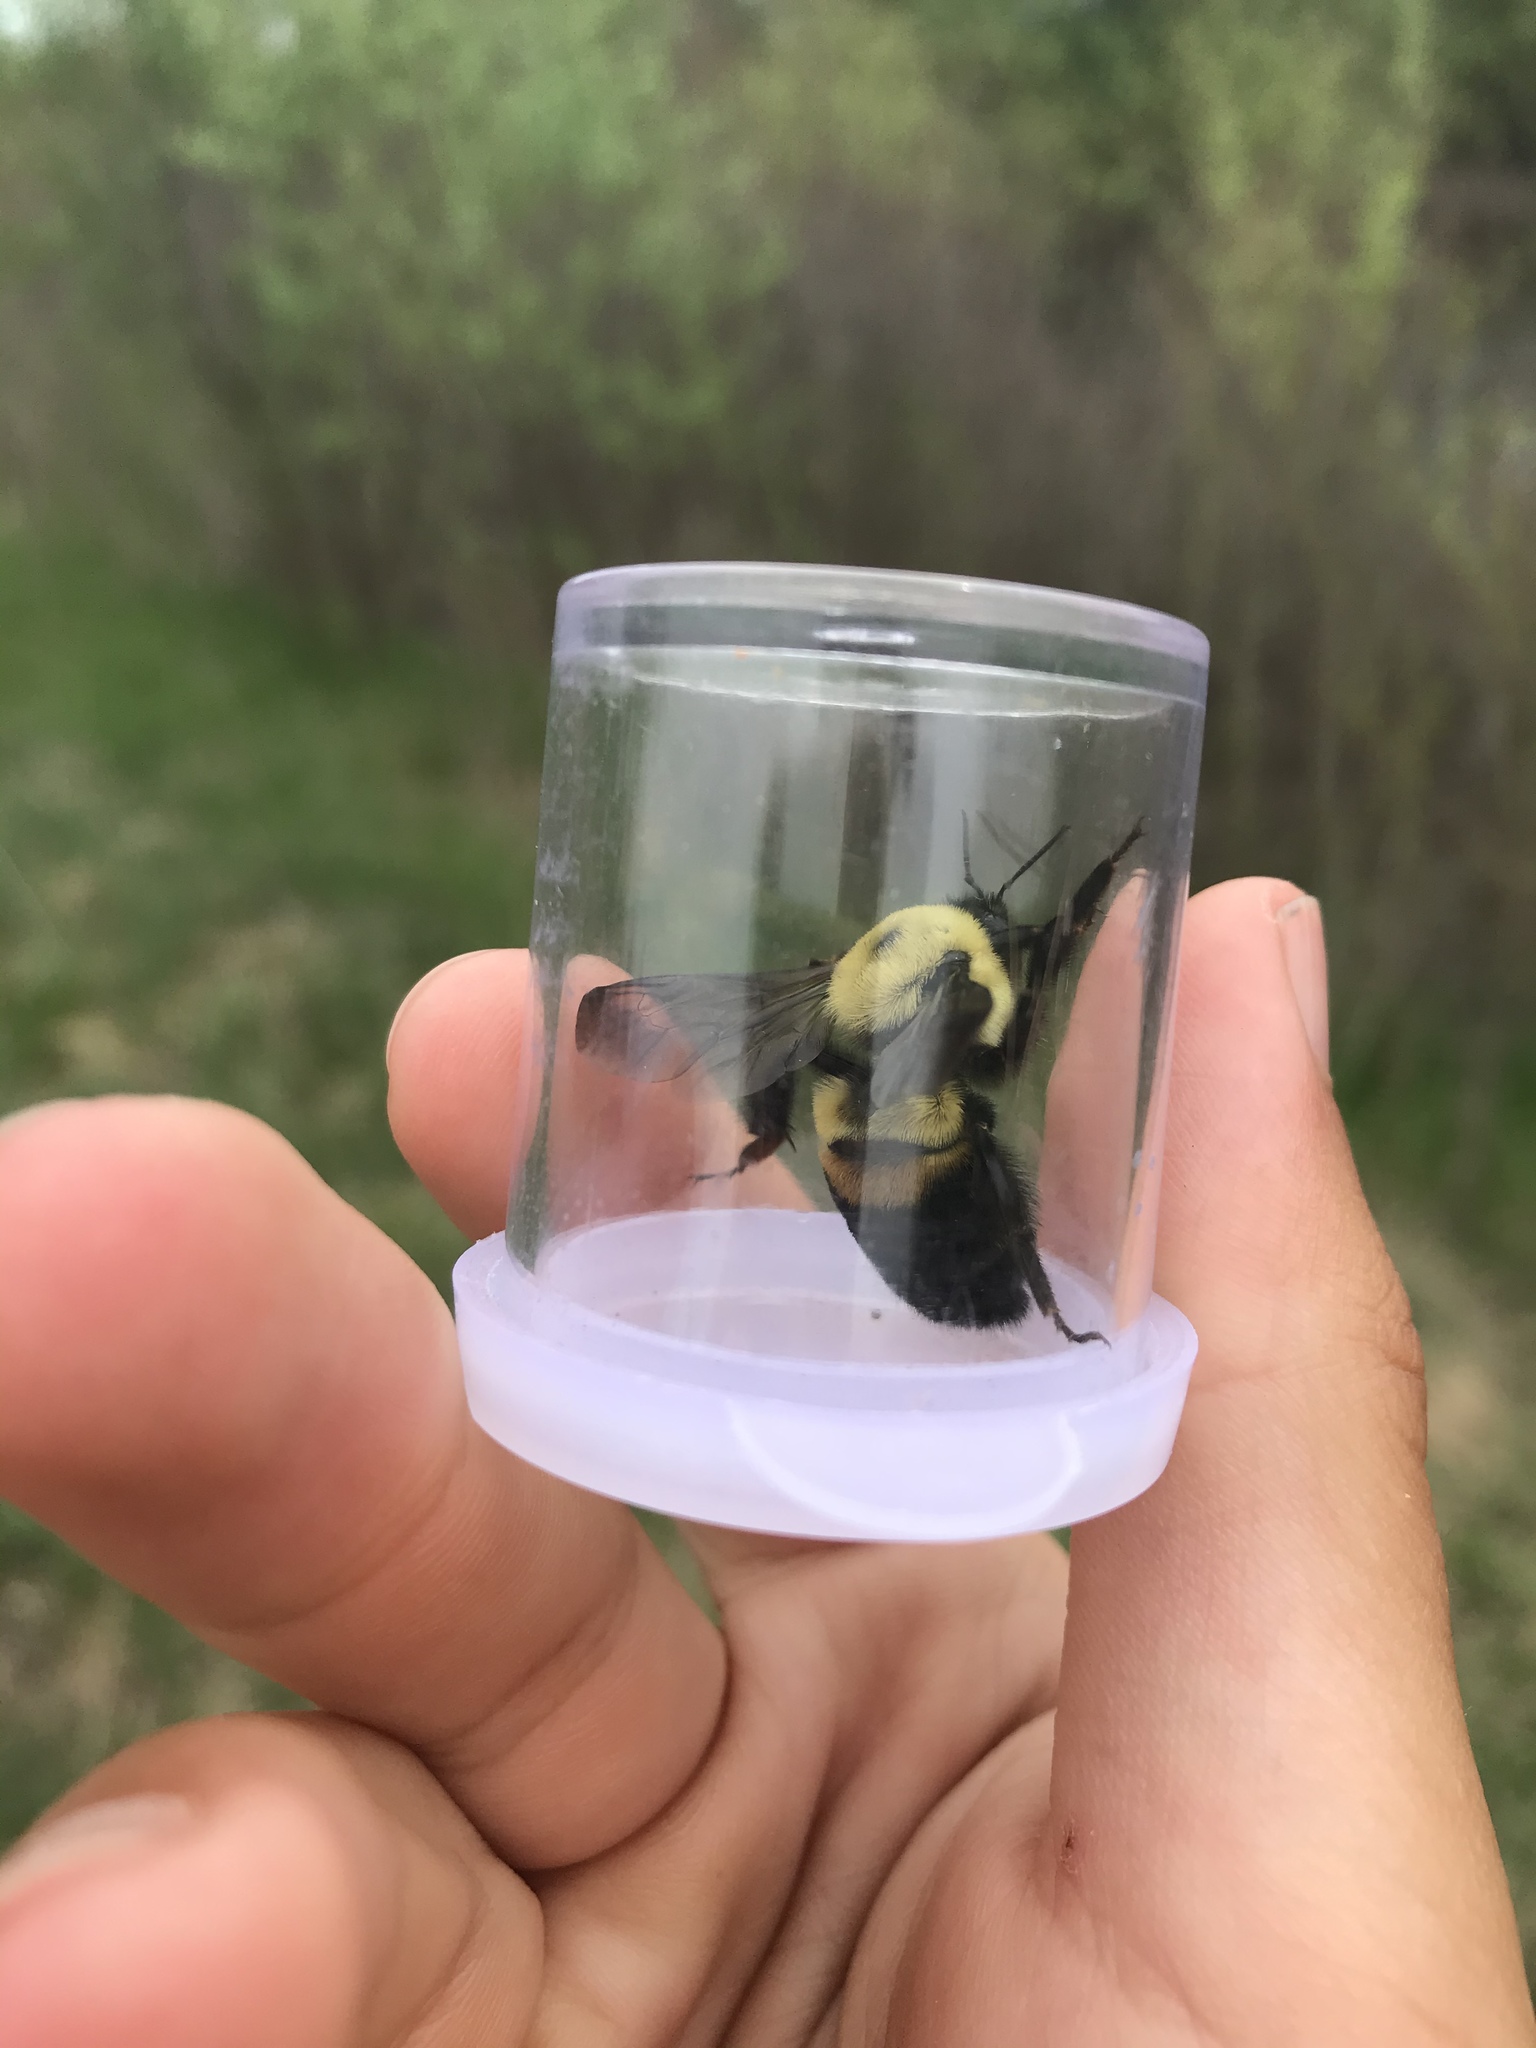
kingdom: Animalia
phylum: Arthropoda
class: Insecta
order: Hymenoptera
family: Apidae
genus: Bombus
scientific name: Bombus griseocollis
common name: Brown-belted bumble bee
